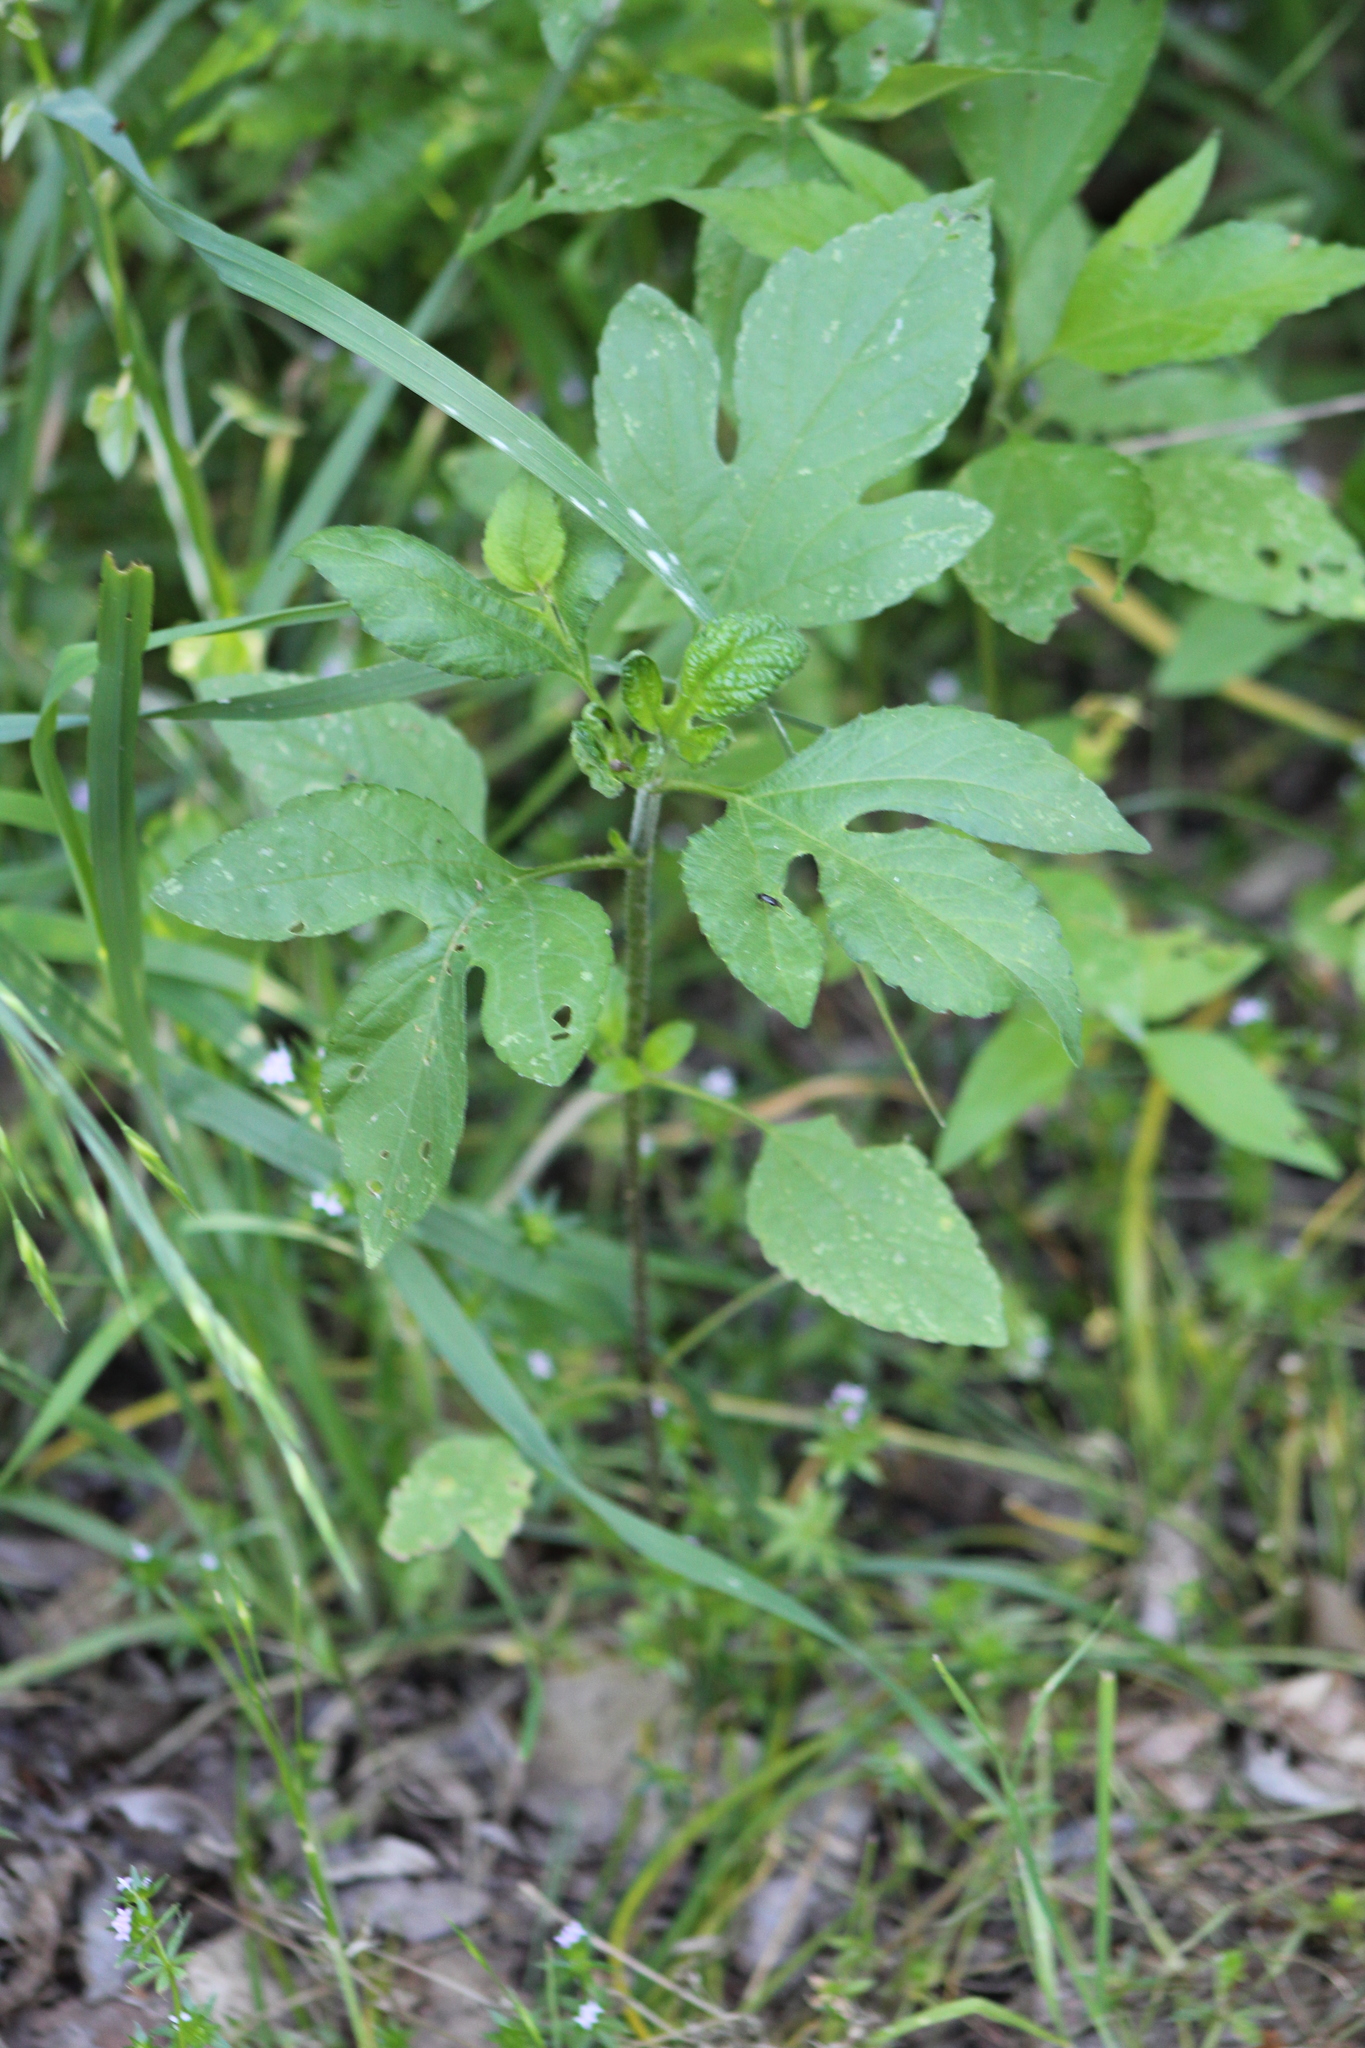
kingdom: Plantae
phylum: Tracheophyta
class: Magnoliopsida
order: Asterales
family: Asteraceae
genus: Ambrosia
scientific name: Ambrosia trifida
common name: Giant ragweed
